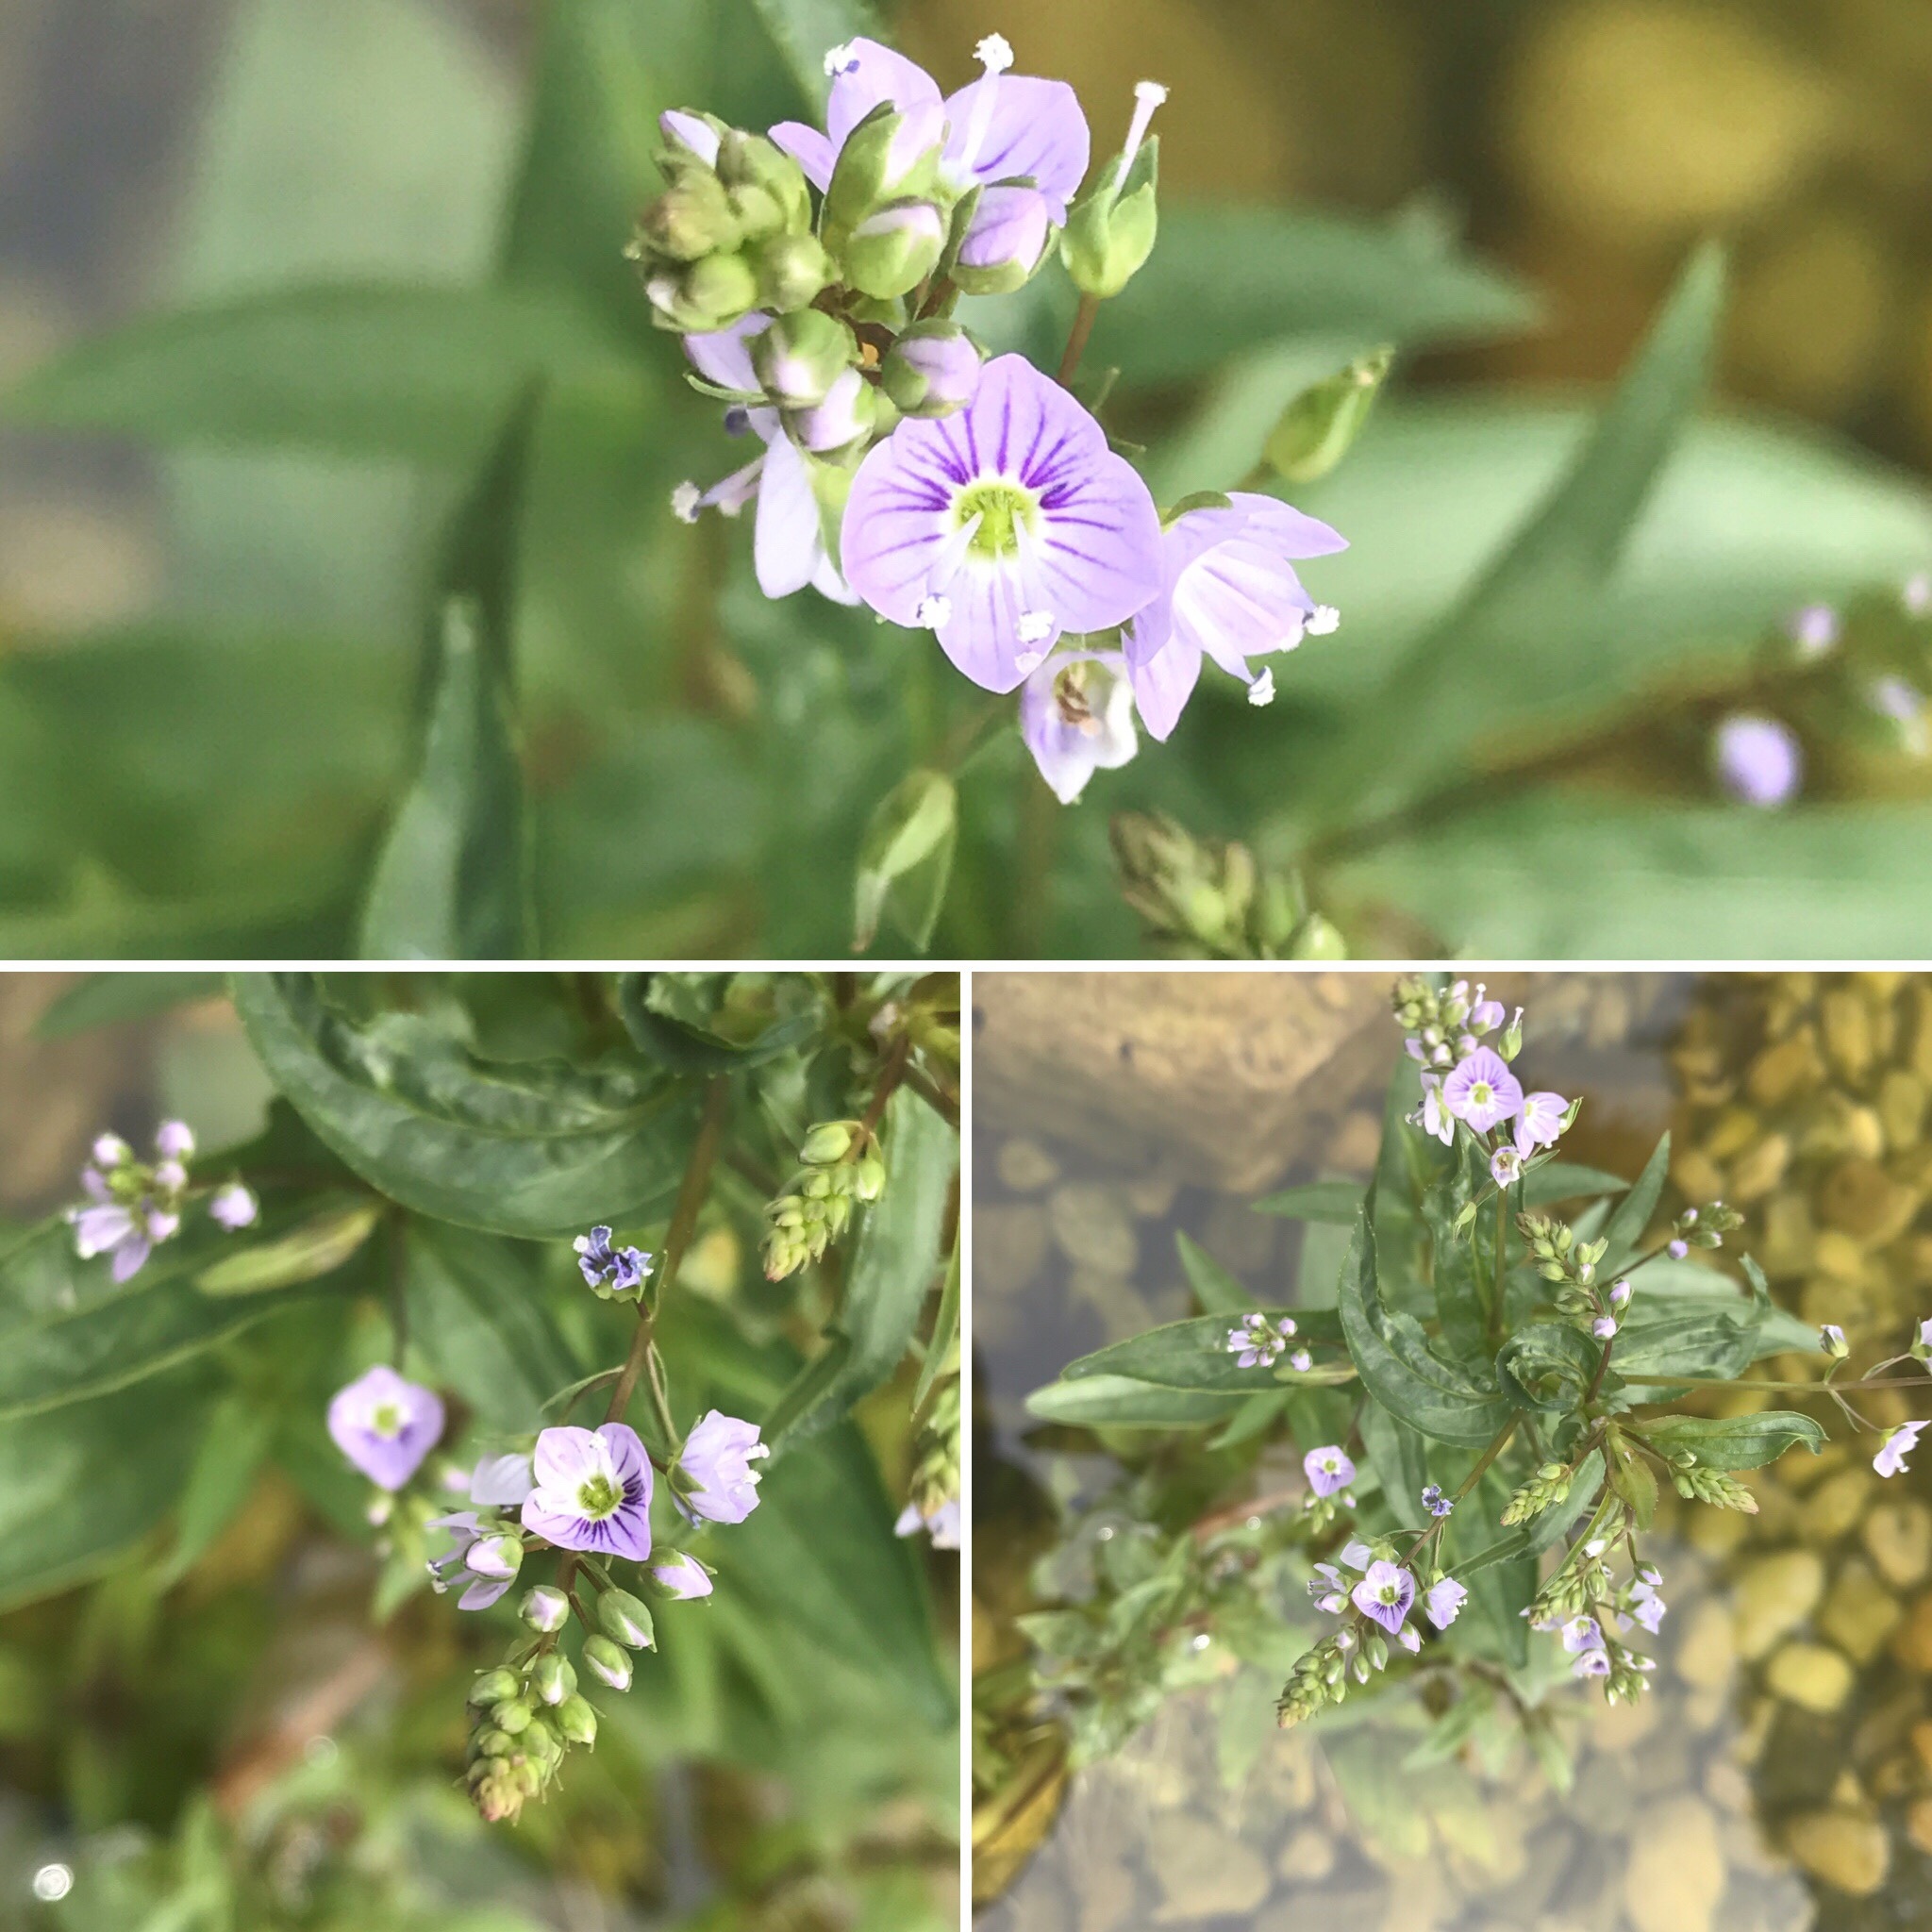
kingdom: Plantae
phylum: Tracheophyta
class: Magnoliopsida
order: Lamiales
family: Plantaginaceae
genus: Veronica
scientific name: Veronica anagallis-aquatica
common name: Water speedwell
